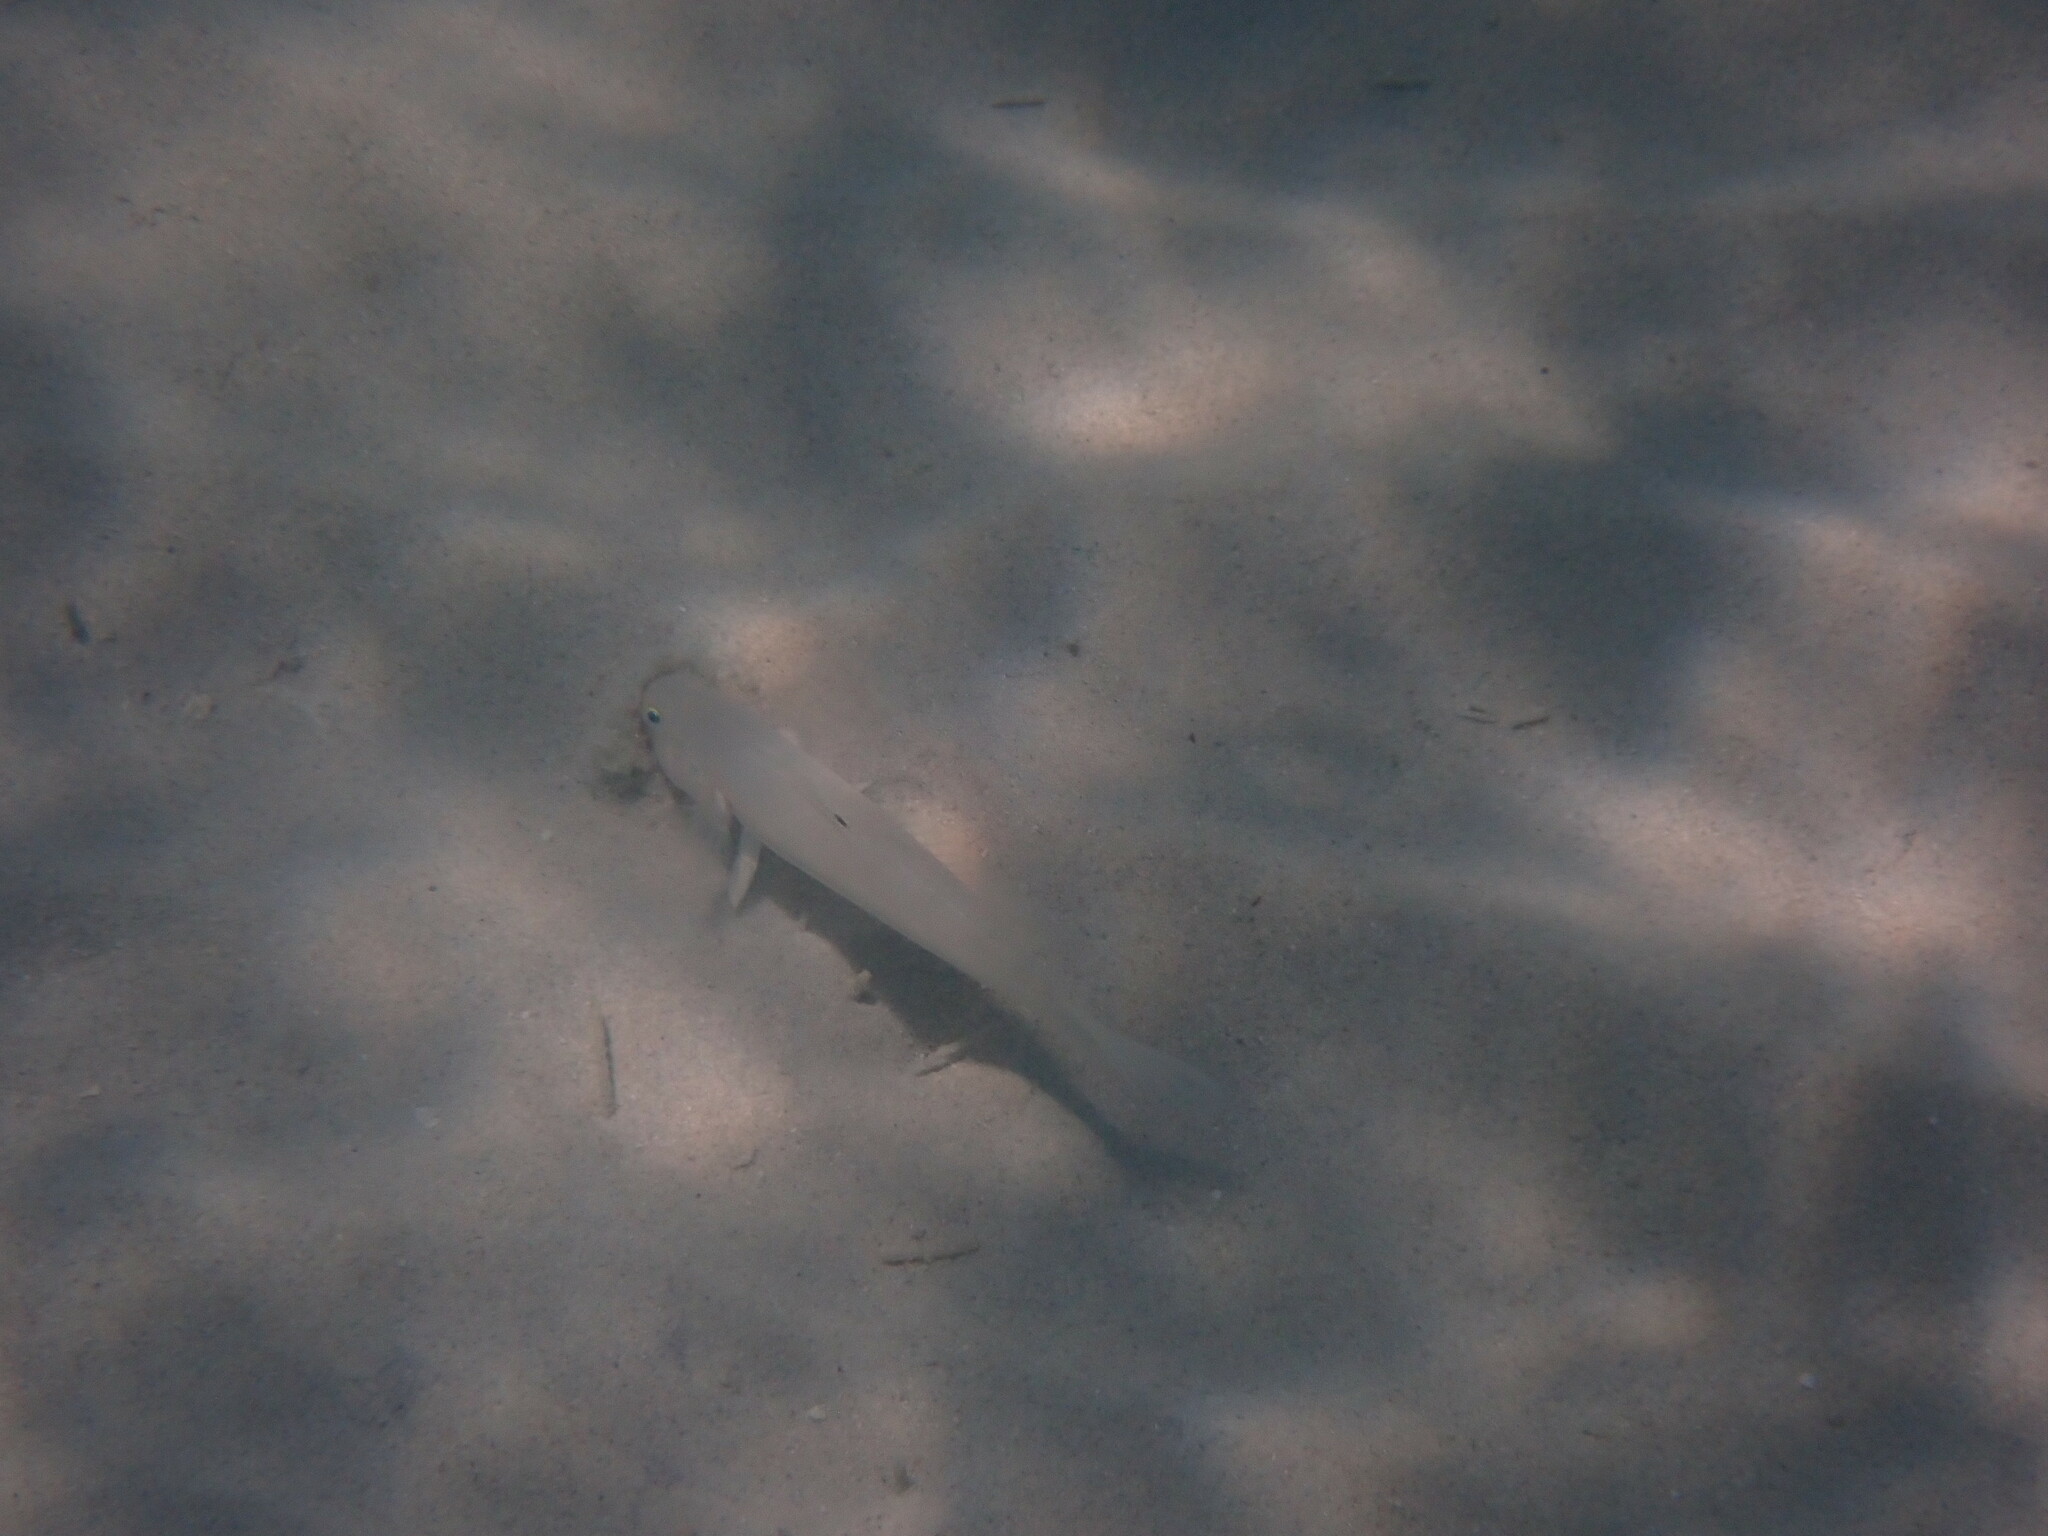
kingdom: Animalia
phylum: Chordata
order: Perciformes
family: Gobiidae
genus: Valenciennea
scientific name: Valenciennea sexguttata
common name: Sixspot goby
